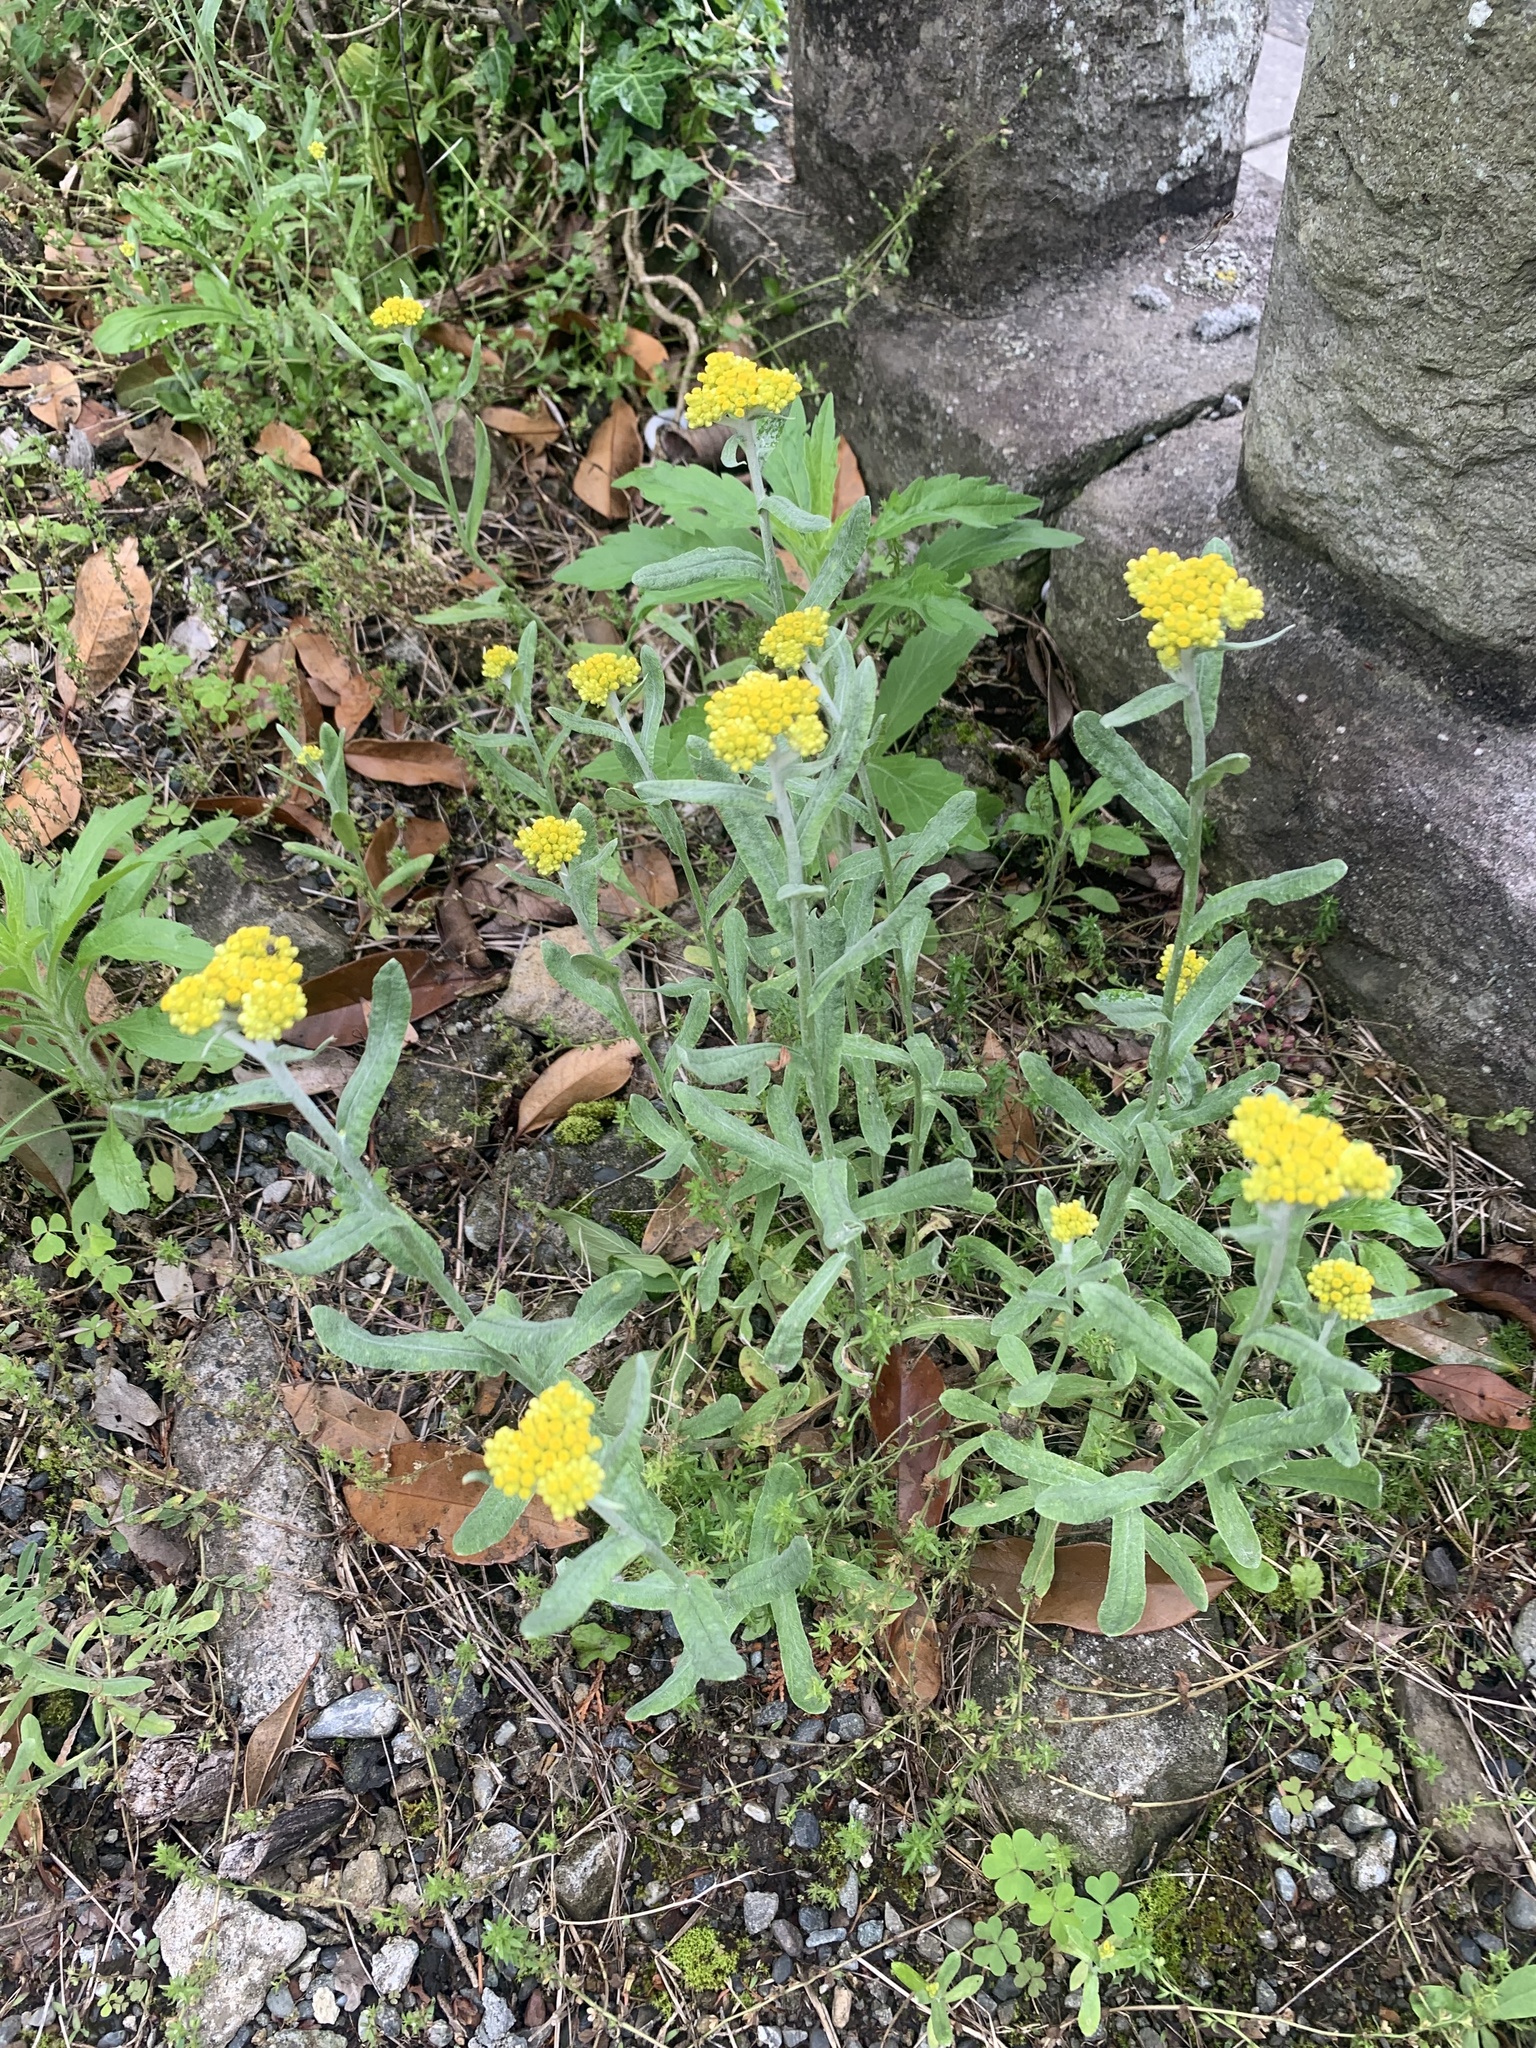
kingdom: Plantae
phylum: Tracheophyta
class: Magnoliopsida
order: Asterales
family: Asteraceae
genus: Pseudognaphalium
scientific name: Pseudognaphalium affine
